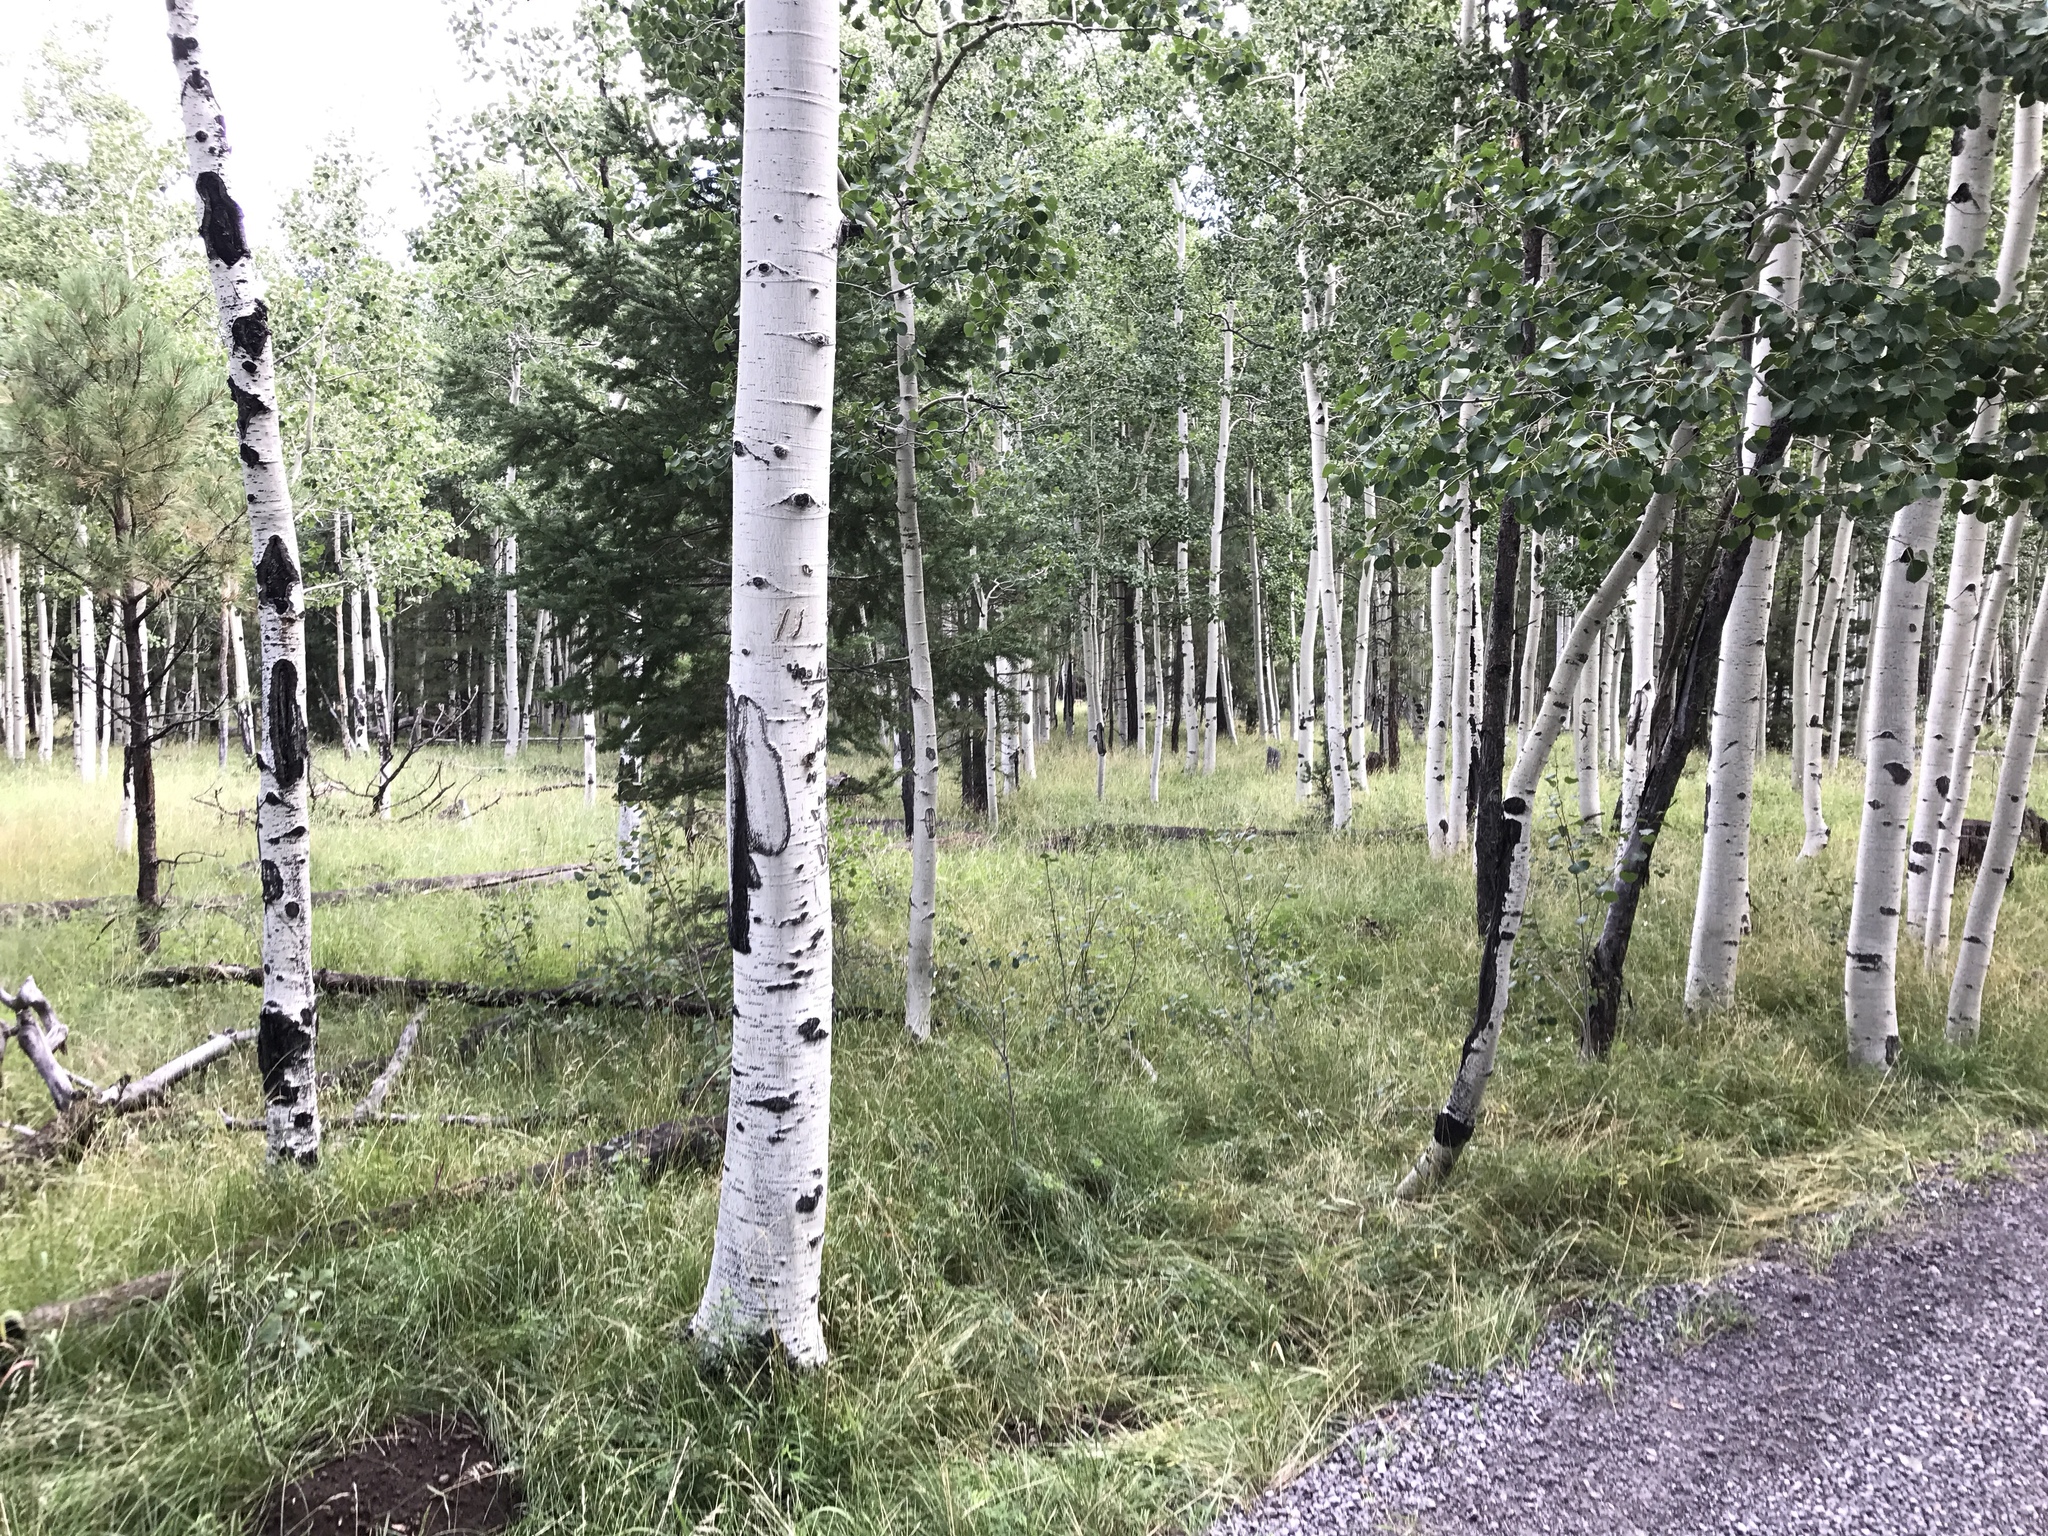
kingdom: Plantae
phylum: Tracheophyta
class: Magnoliopsida
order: Malpighiales
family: Salicaceae
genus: Populus
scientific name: Populus tremuloides
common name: Quaking aspen
